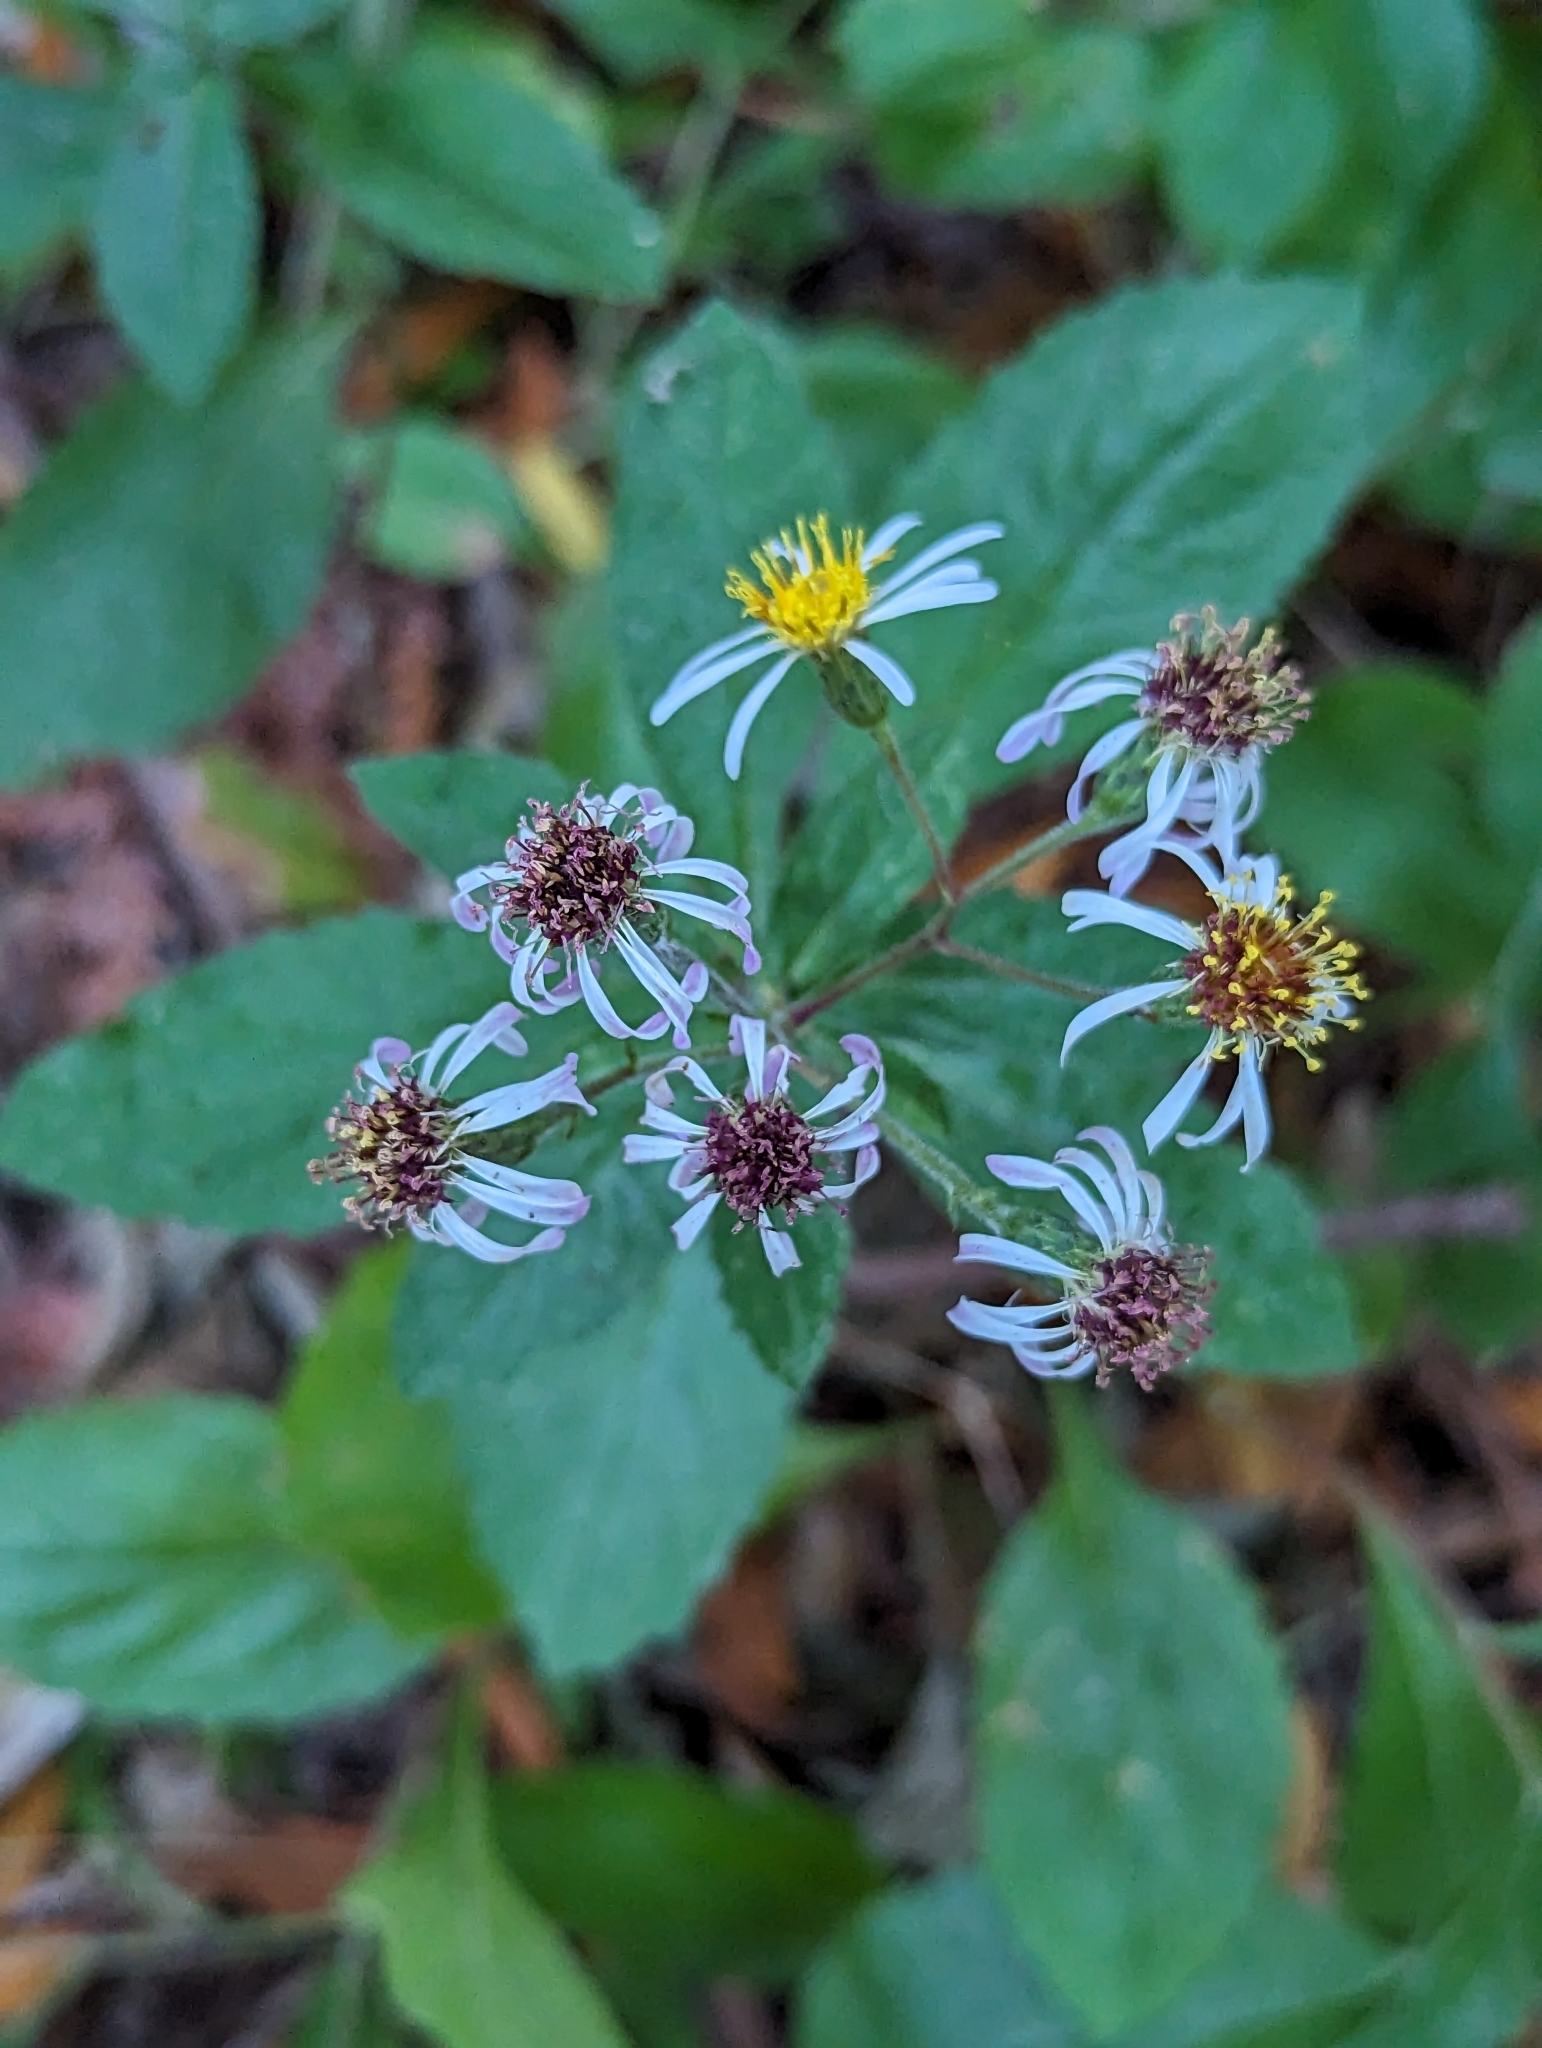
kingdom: Plantae
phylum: Tracheophyta
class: Magnoliopsida
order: Asterales
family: Asteraceae
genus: Eurybia
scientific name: Eurybia radulina
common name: Rough-leaved aster
